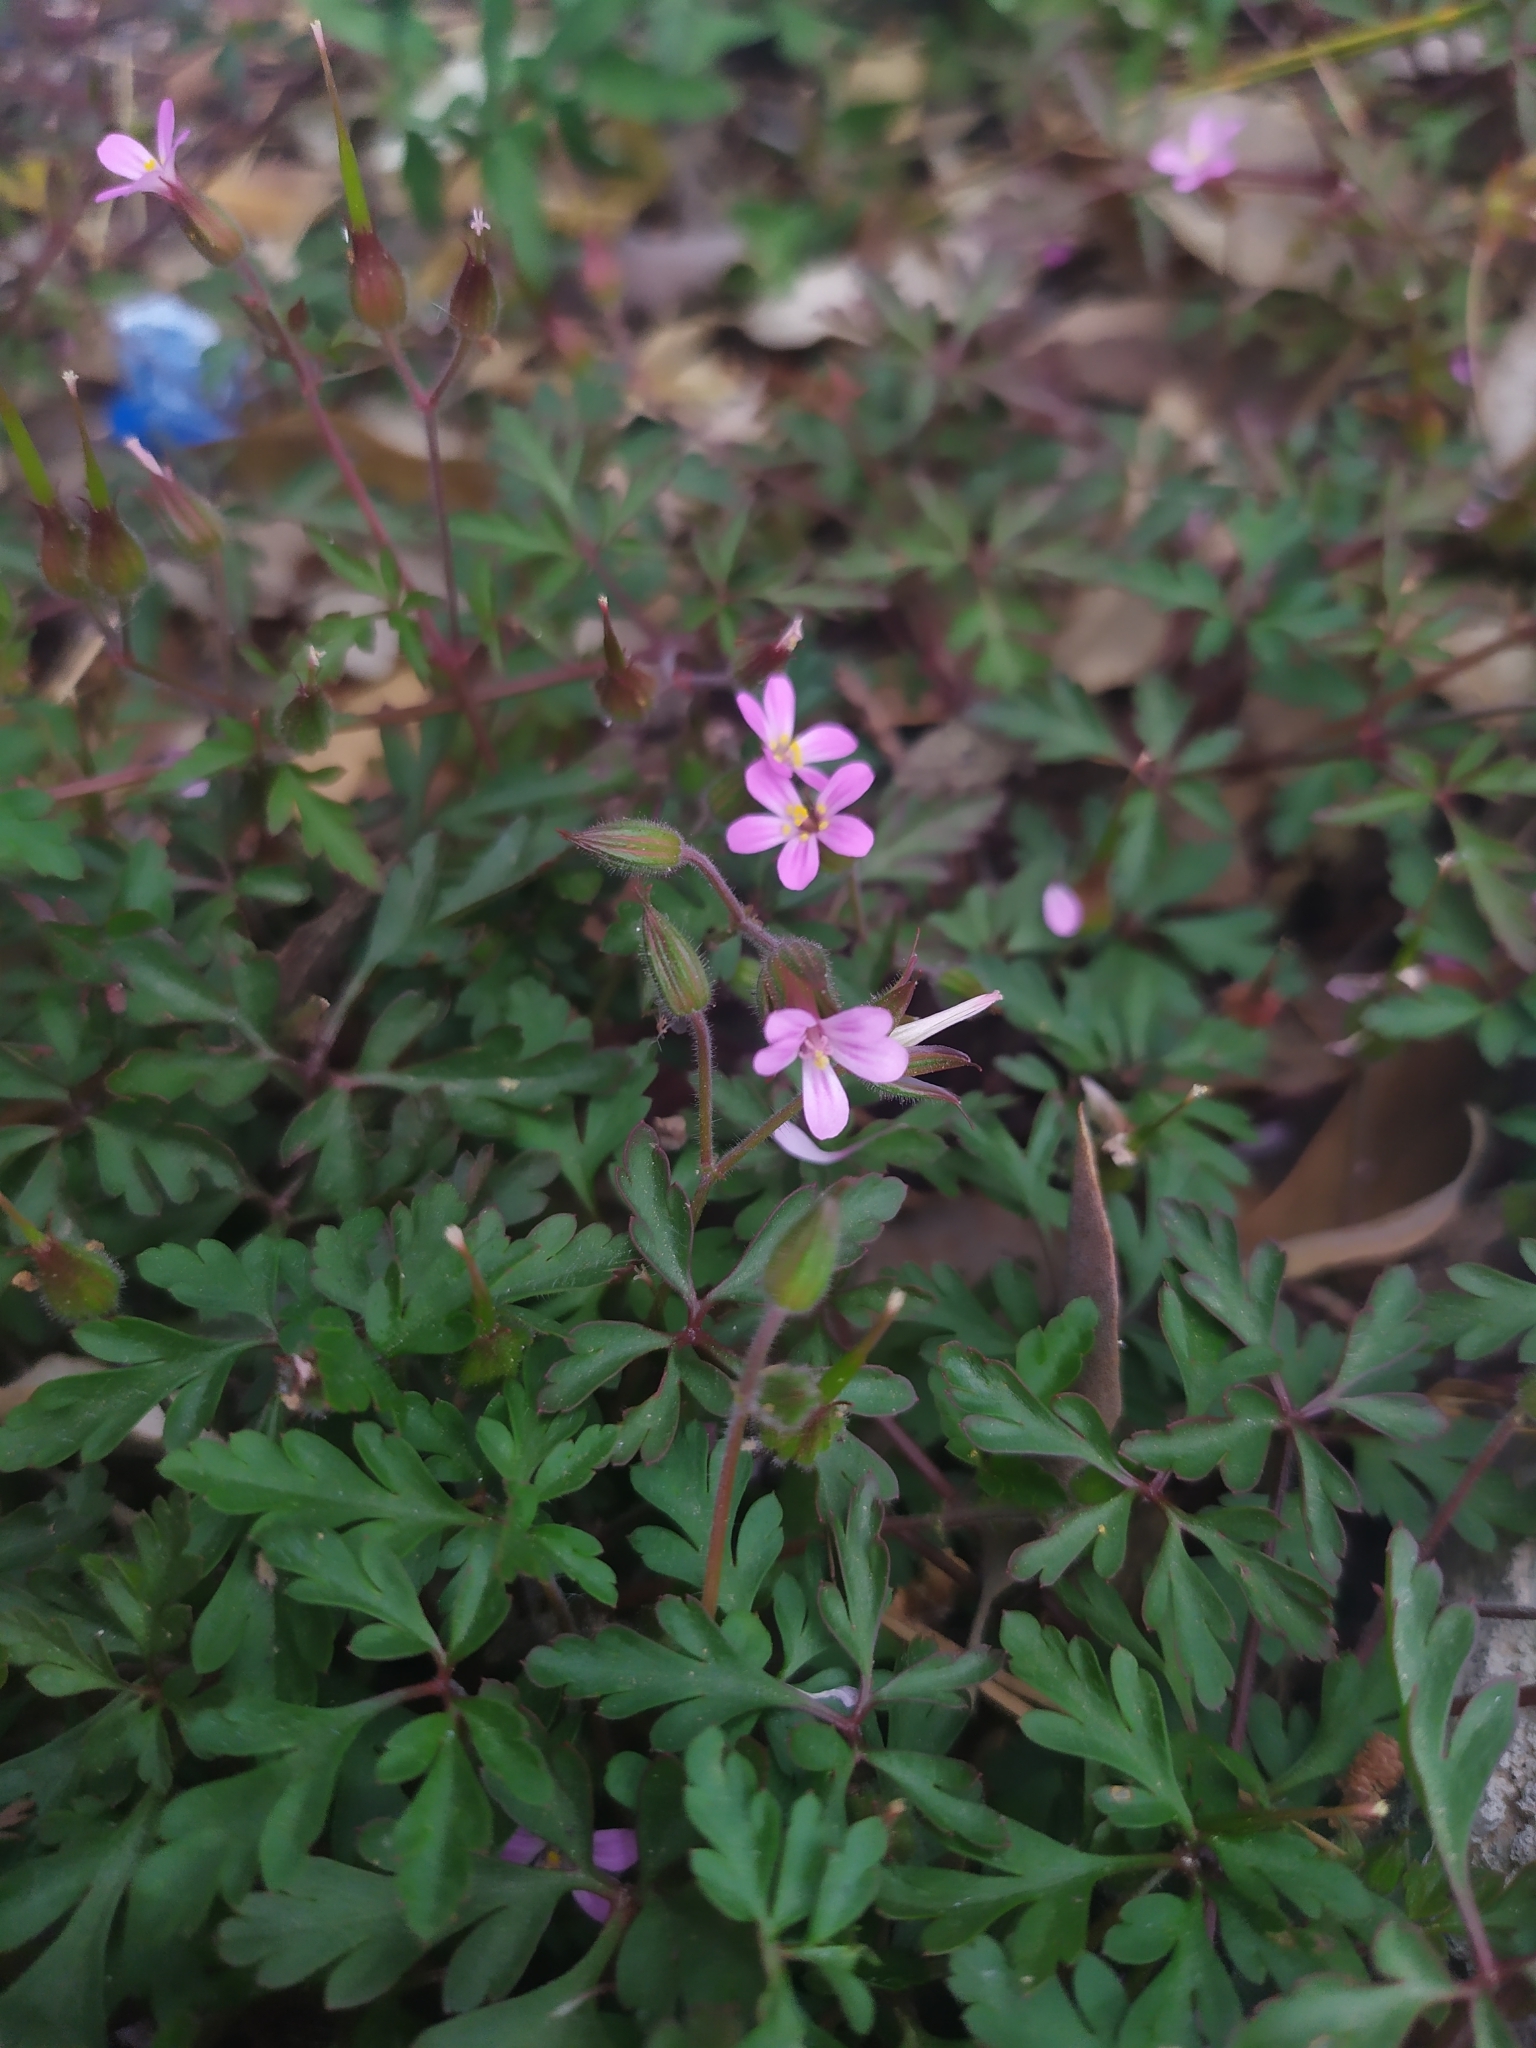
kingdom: Plantae
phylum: Tracheophyta
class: Magnoliopsida
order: Geraniales
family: Geraniaceae
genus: Geranium
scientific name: Geranium purpureum
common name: Little-robin
